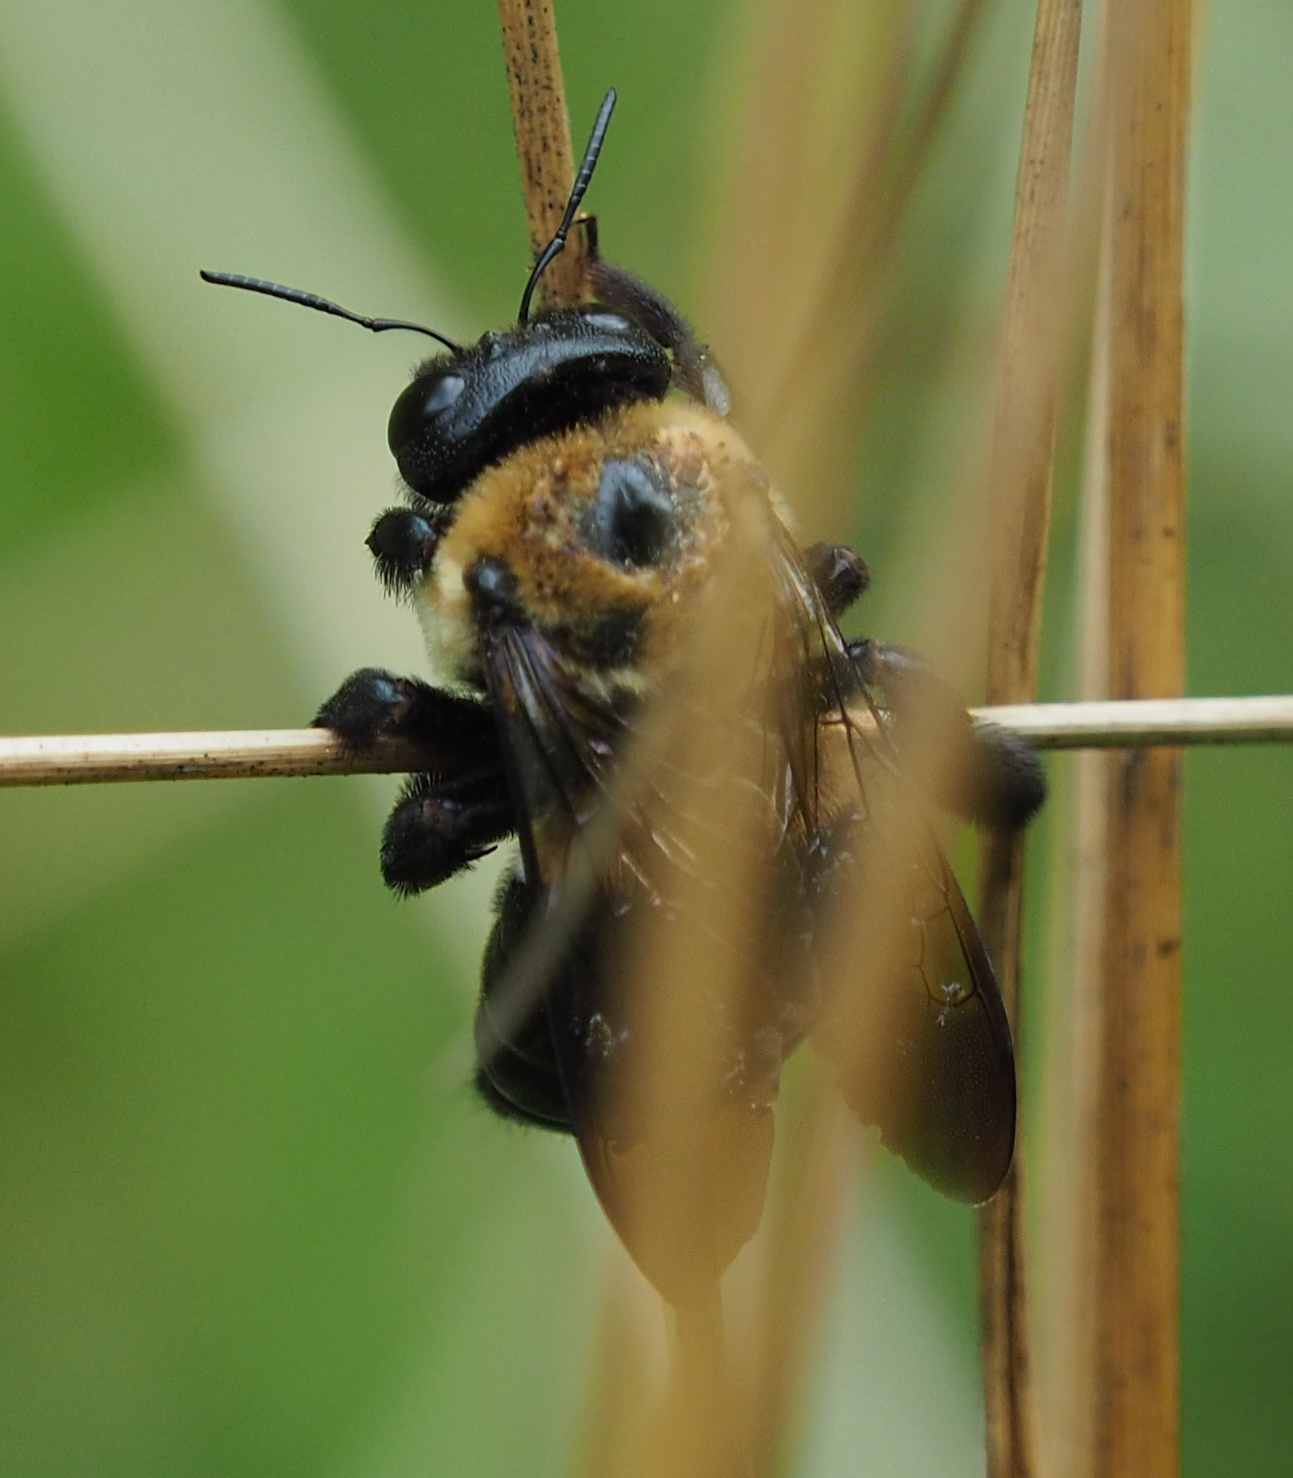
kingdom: Animalia
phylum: Arthropoda
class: Insecta
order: Hymenoptera
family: Apidae
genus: Xylocopa
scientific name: Xylocopa virginica
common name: Carpenter bee
